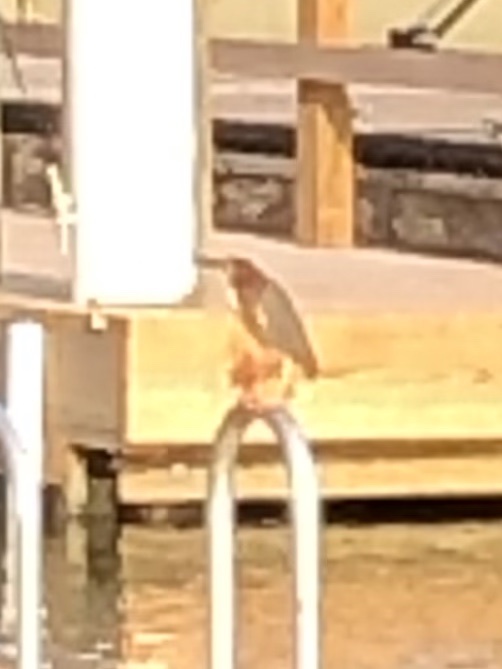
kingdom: Animalia
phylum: Chordata
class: Aves
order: Pelecaniformes
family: Ardeidae
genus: Butorides
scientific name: Butorides virescens
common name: Green heron
